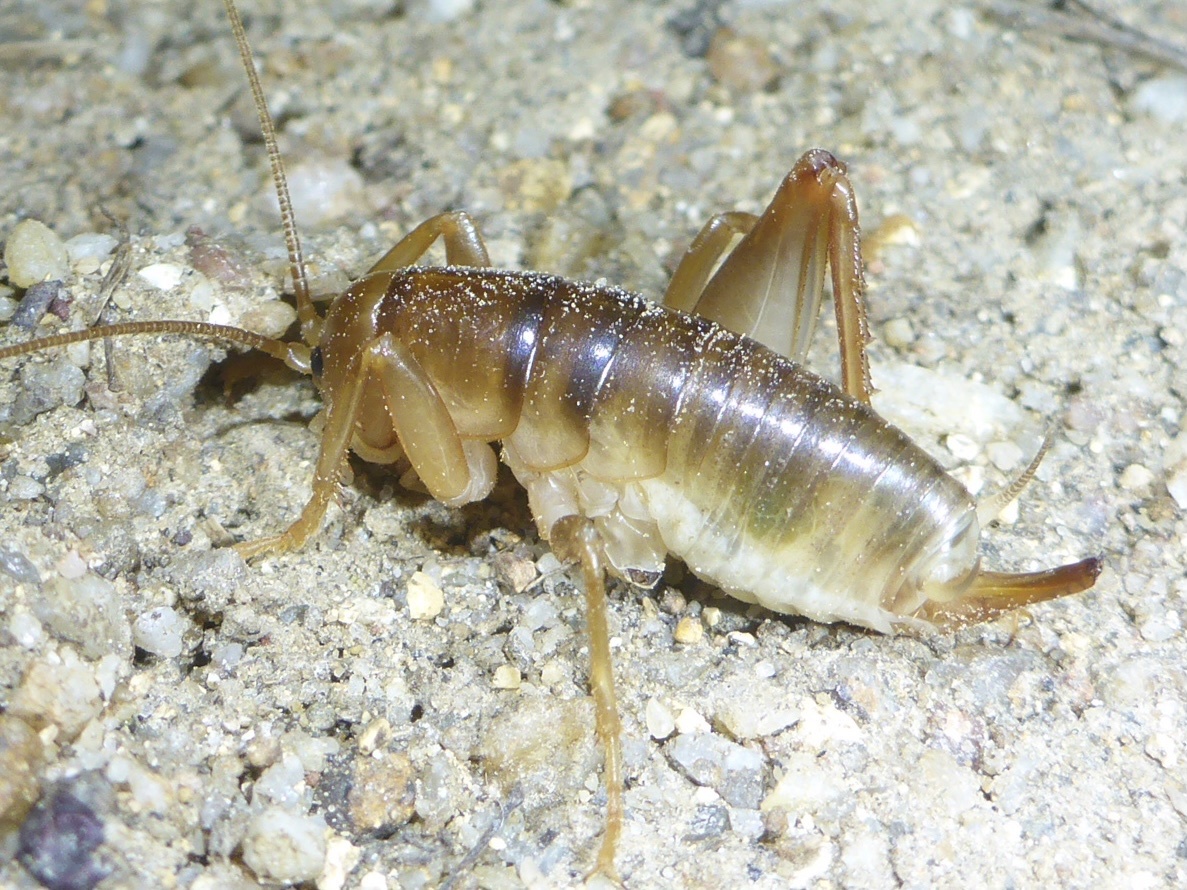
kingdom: Animalia
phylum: Arthropoda
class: Insecta
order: Orthoptera
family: Rhaphidophoridae
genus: Ceuthophilus
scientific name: Ceuthophilus californianus
